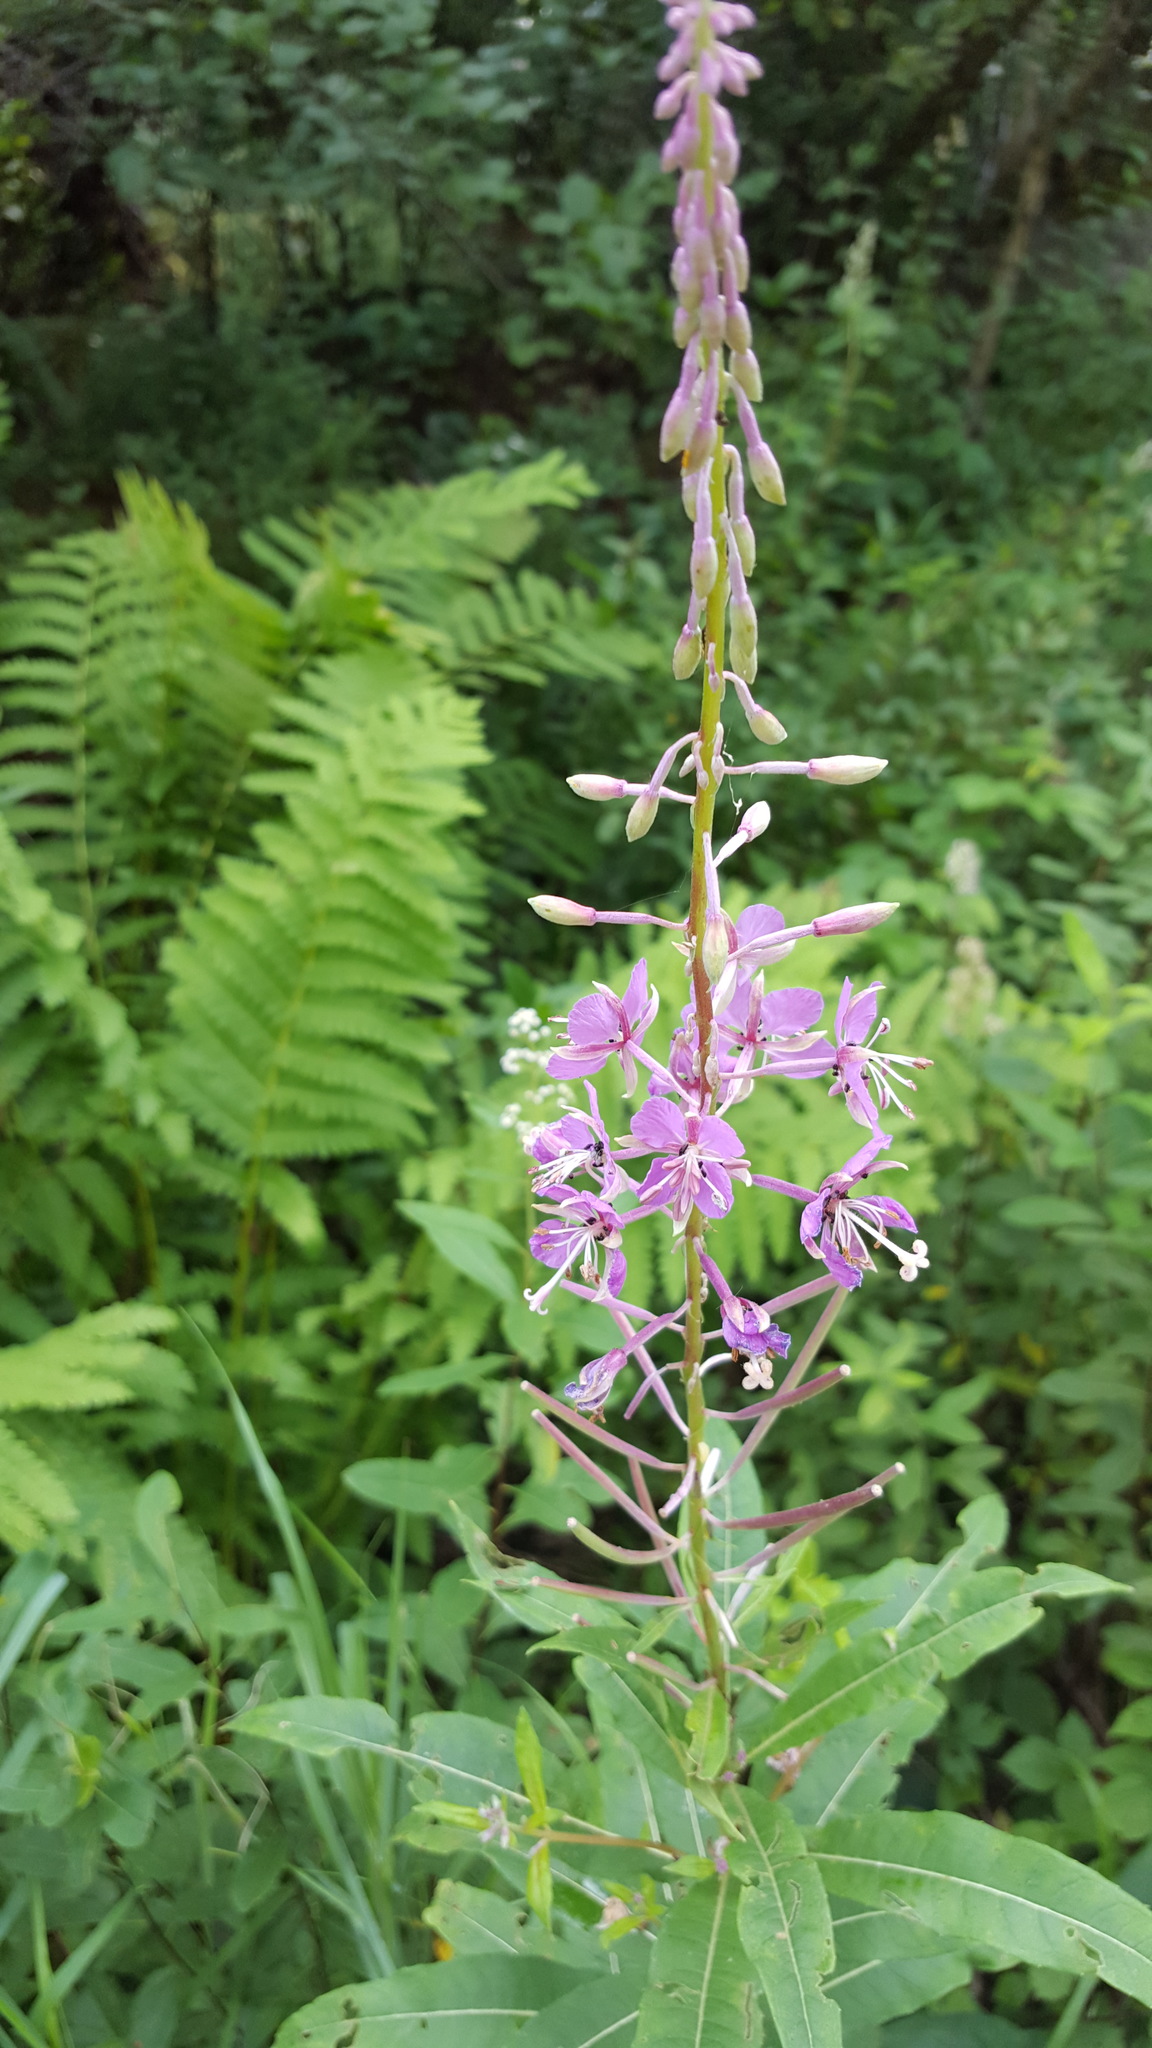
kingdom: Plantae
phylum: Tracheophyta
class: Magnoliopsida
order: Myrtales
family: Onagraceae
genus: Chamaenerion
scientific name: Chamaenerion angustifolium
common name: Fireweed
